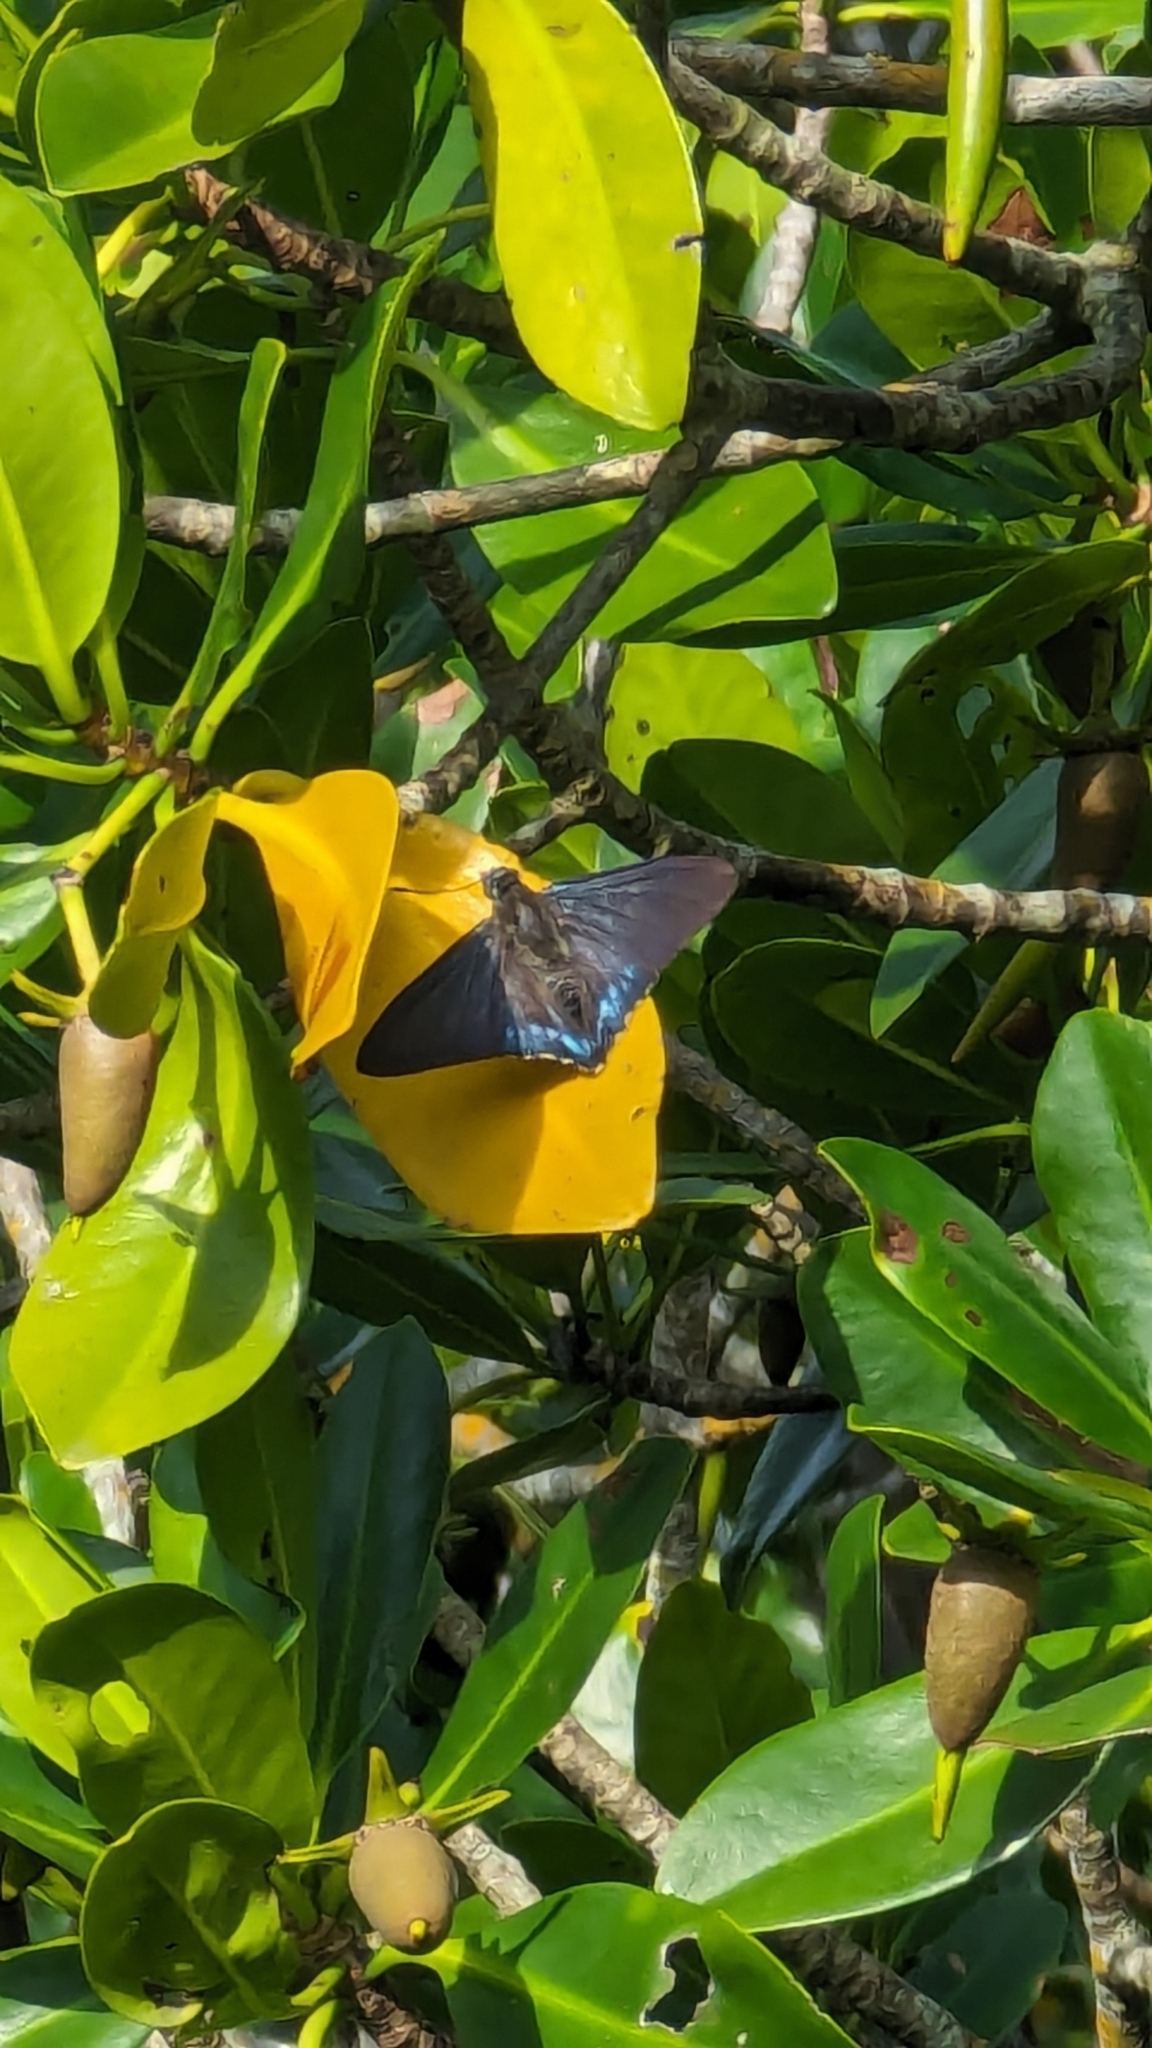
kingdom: Animalia
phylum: Arthropoda
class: Insecta
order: Lepidoptera
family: Hesperiidae
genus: Phocides
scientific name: Phocides pigmalion
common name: Mangrove skipper
